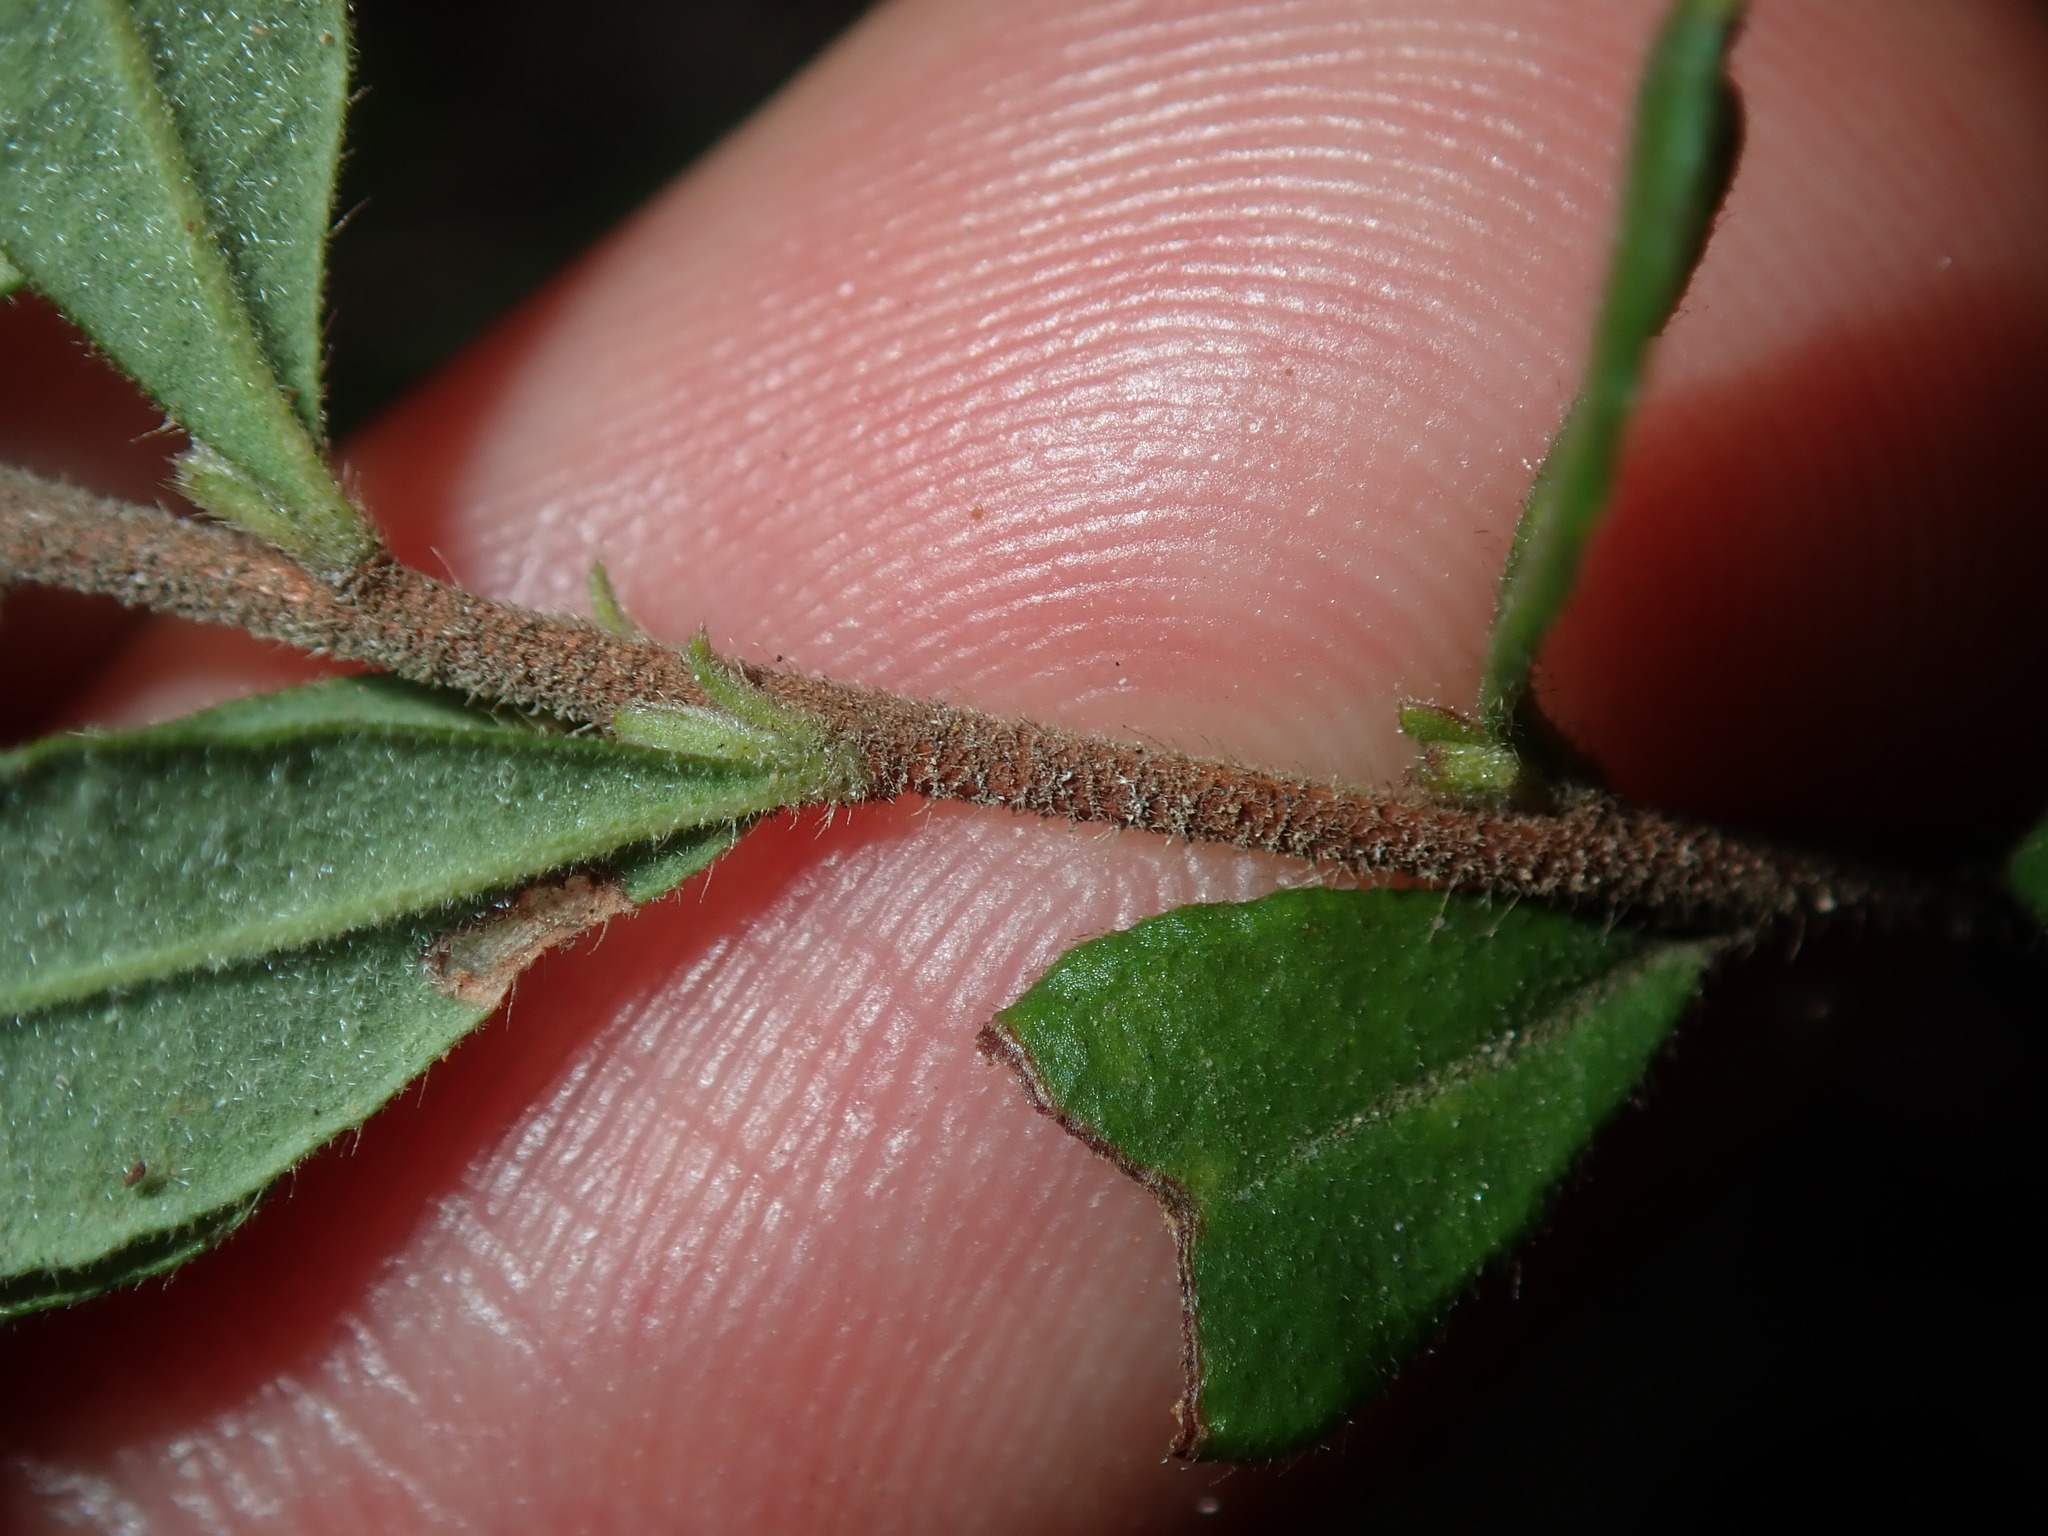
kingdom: Plantae
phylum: Tracheophyta
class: Magnoliopsida
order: Dilleniales
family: Dilleniaceae
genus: Hibbertia
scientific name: Hibbertia aspera
